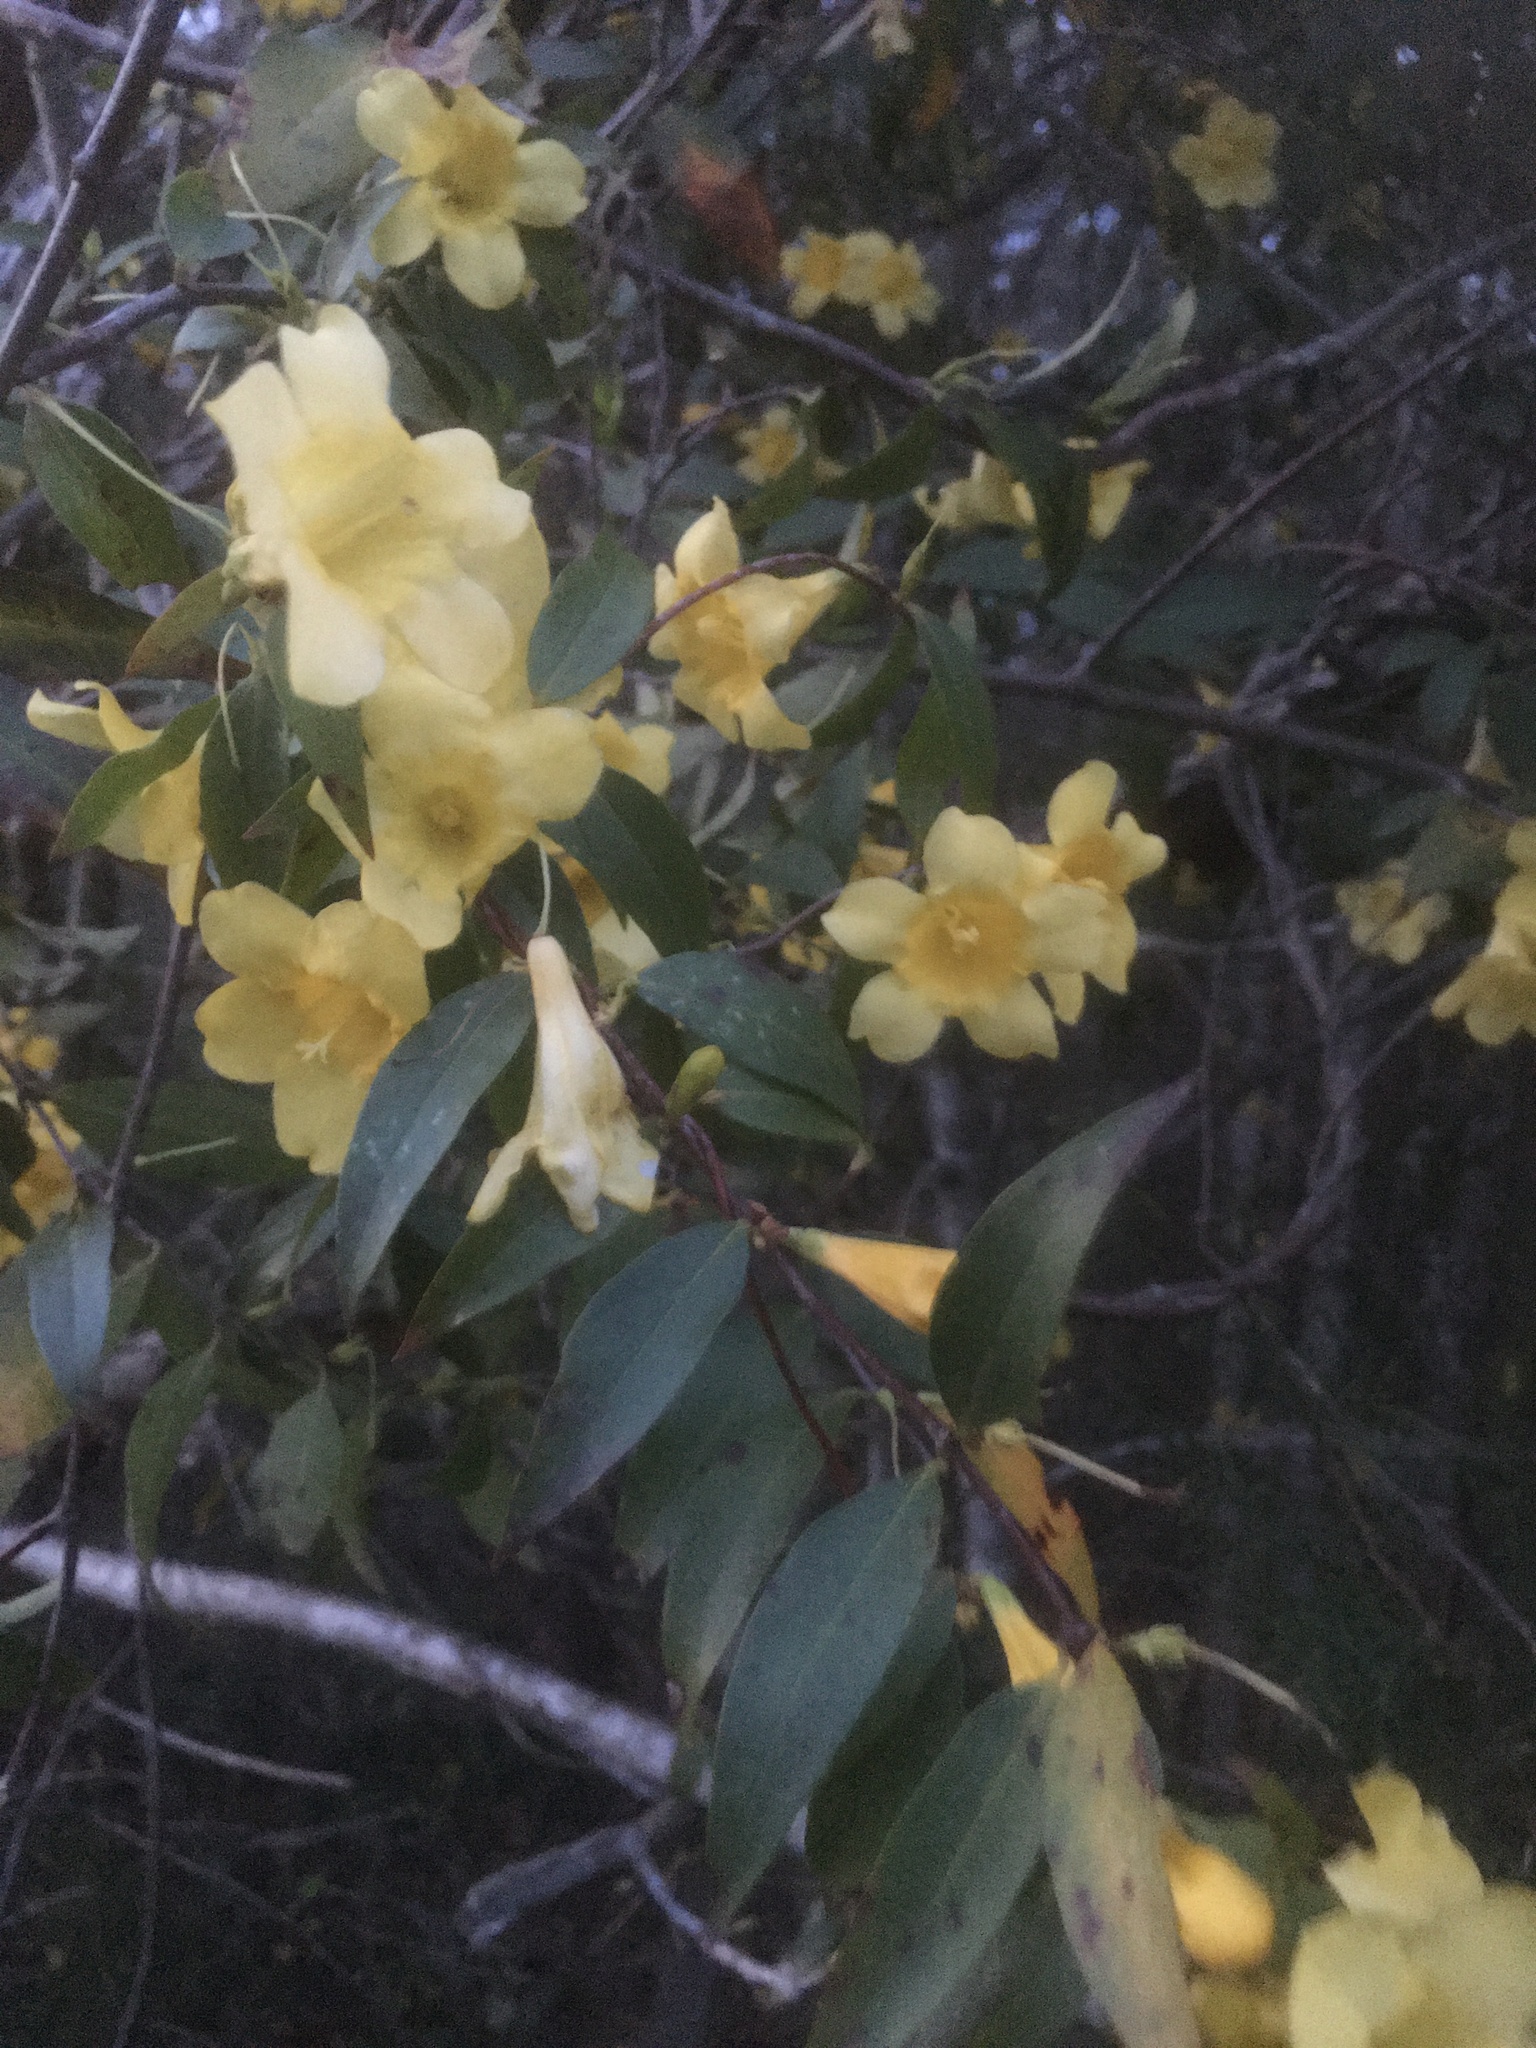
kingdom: Plantae
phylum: Tracheophyta
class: Magnoliopsida
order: Gentianales
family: Gelsemiaceae
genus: Gelsemium
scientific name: Gelsemium sempervirens
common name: Carolina-jasmine
